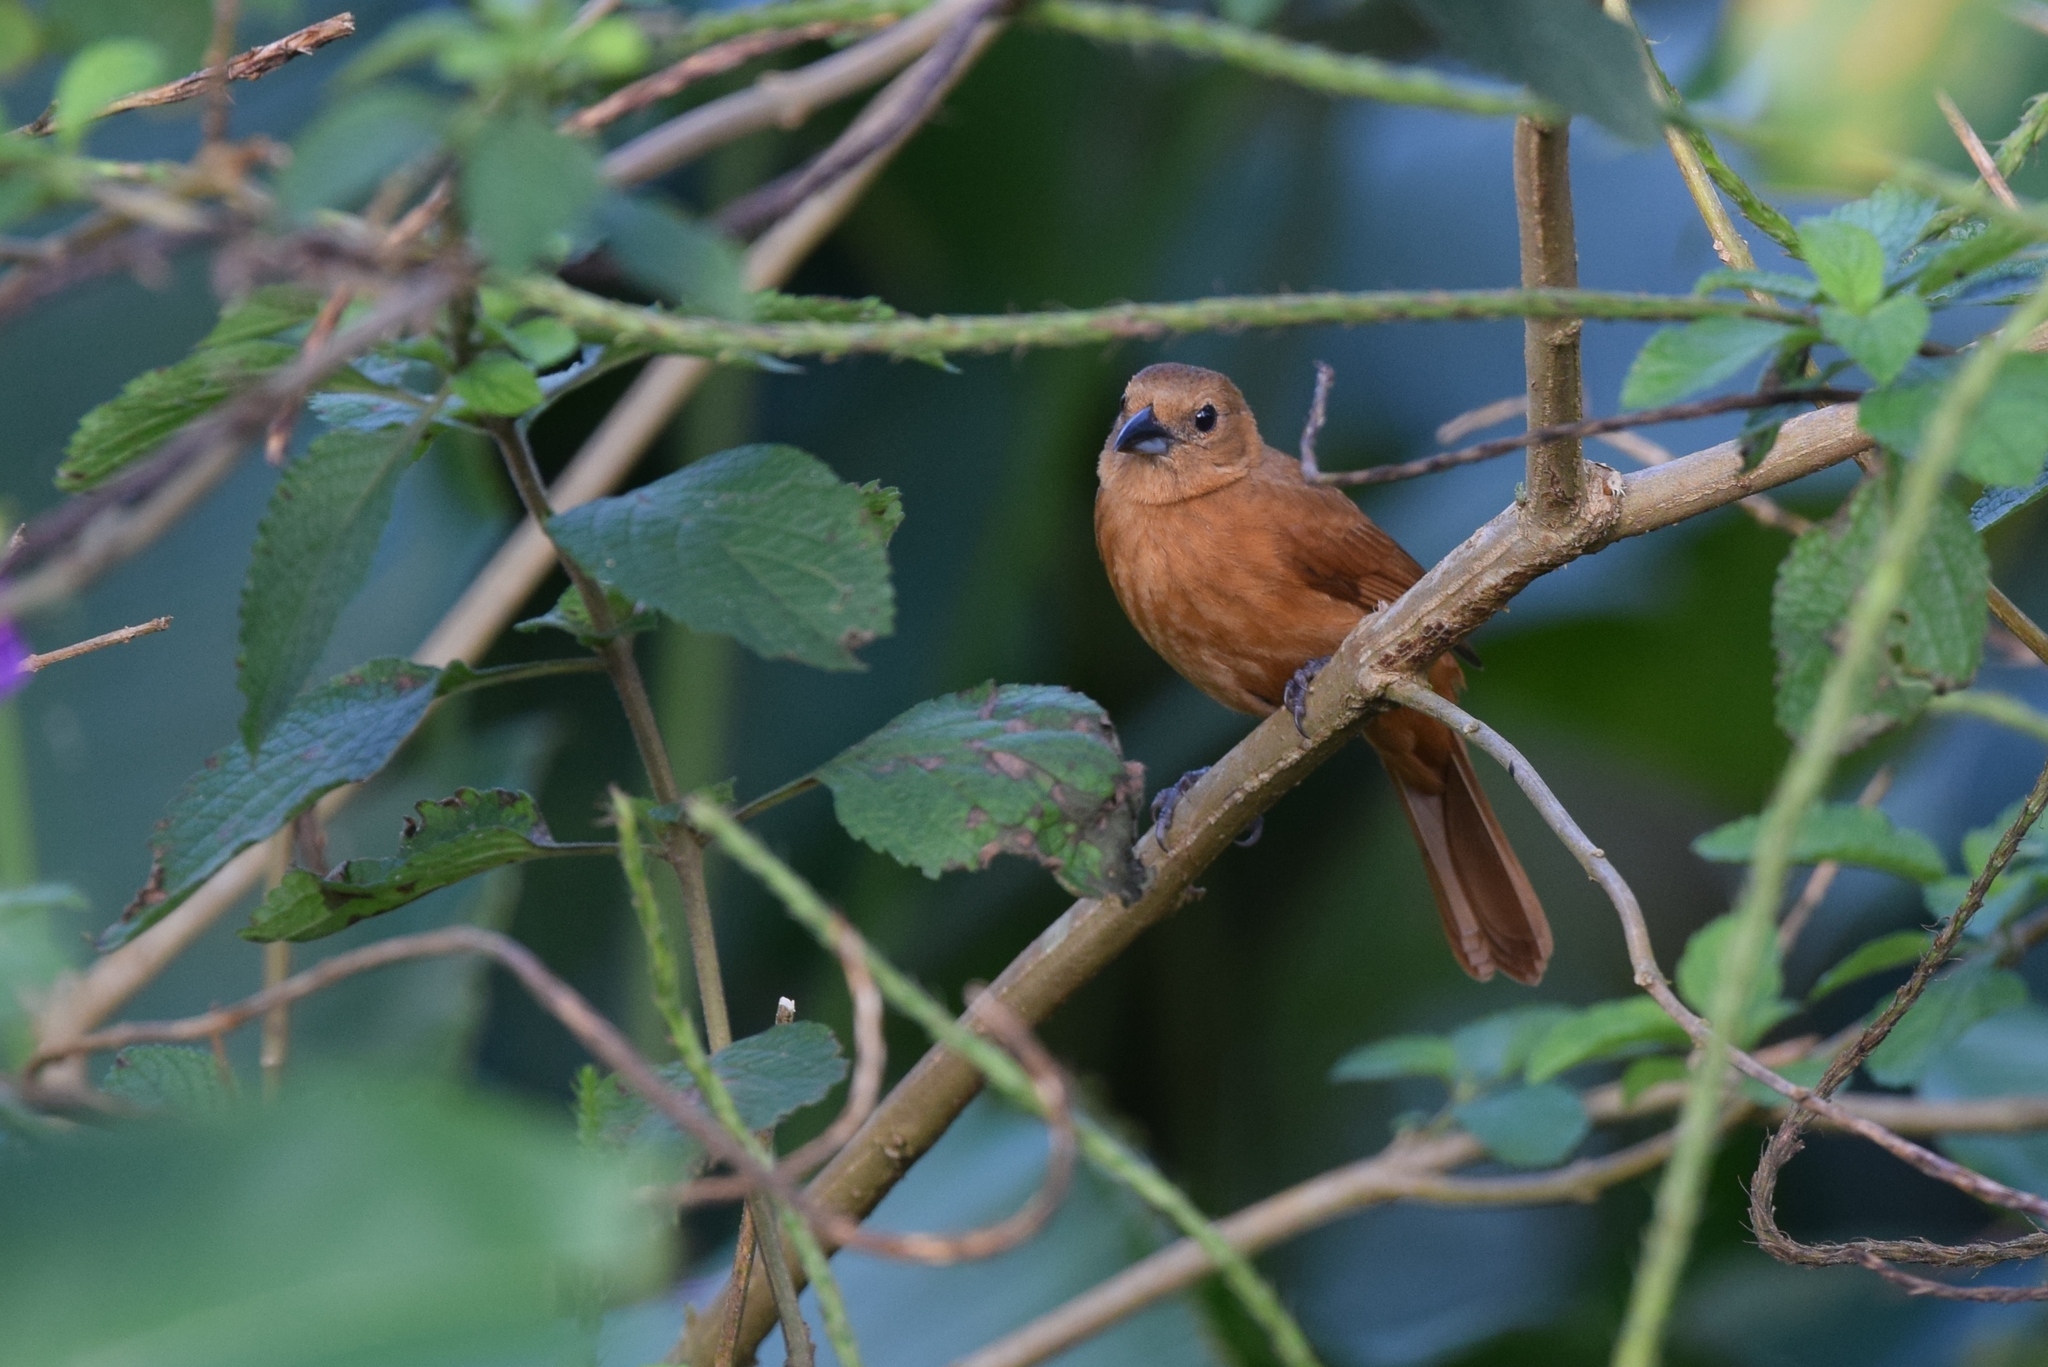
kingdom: Animalia
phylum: Chordata
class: Aves
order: Passeriformes
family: Thraupidae
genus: Tachyphonus
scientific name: Tachyphonus rufus
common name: White-lined tanager
